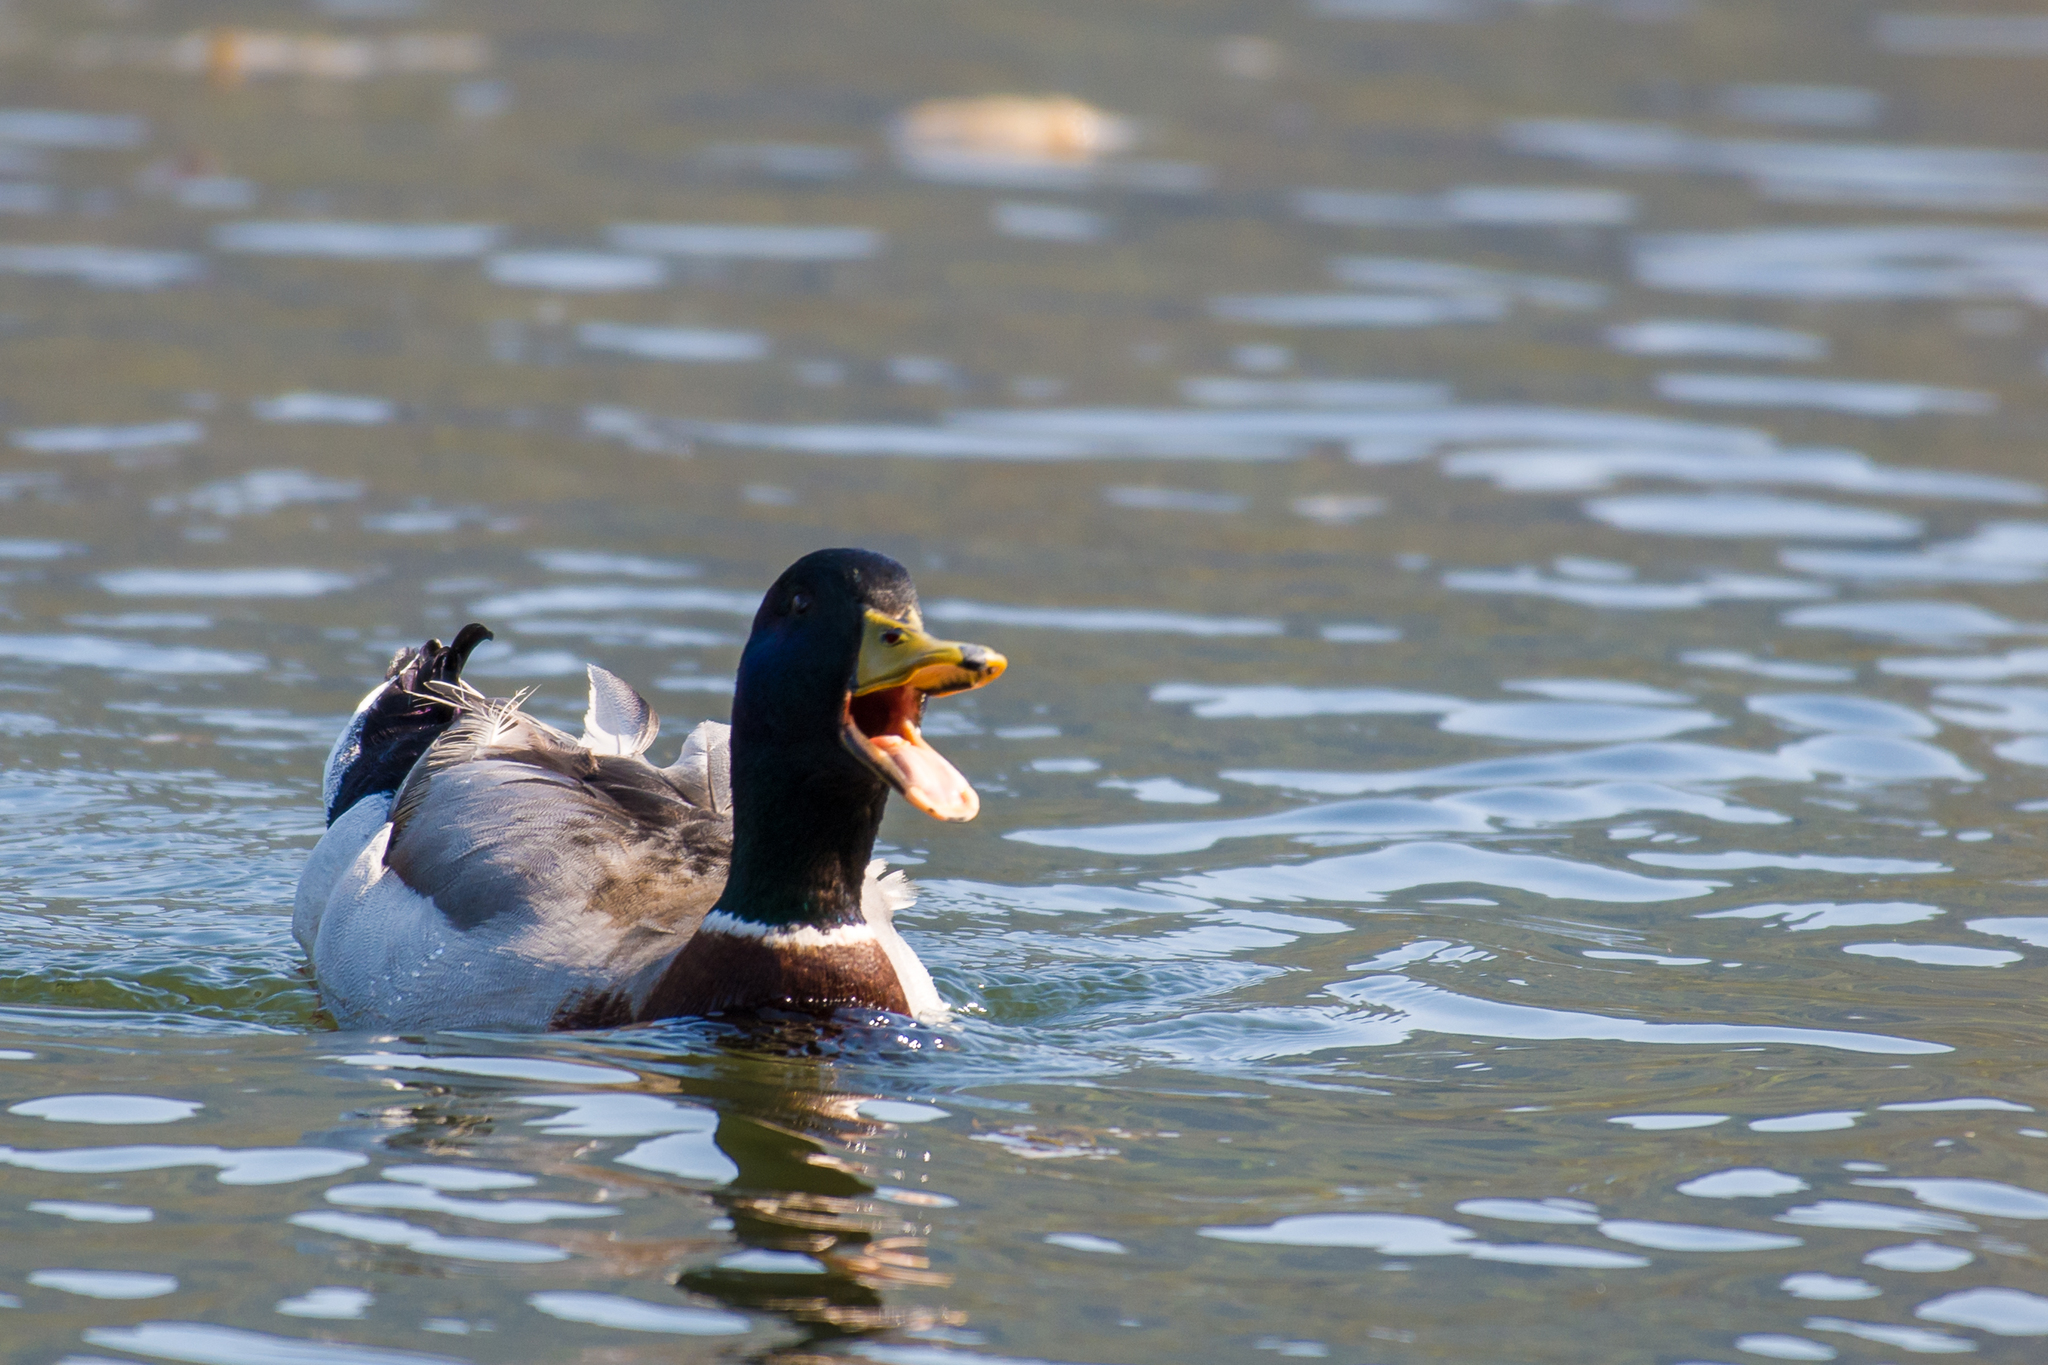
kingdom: Animalia
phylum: Chordata
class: Aves
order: Anseriformes
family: Anatidae
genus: Anas
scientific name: Anas platyrhynchos
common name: Mallard
